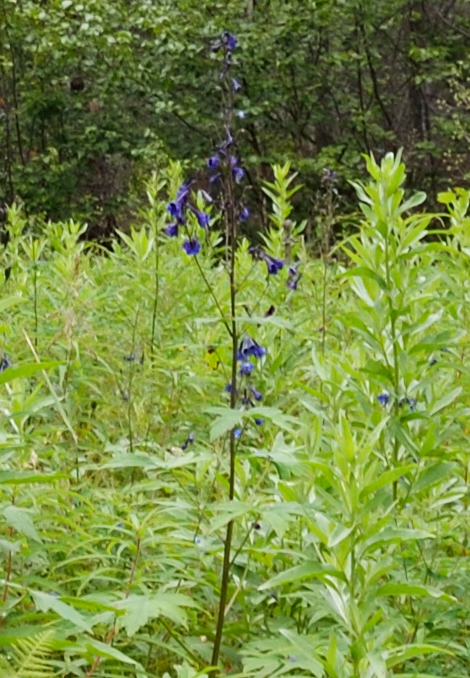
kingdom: Plantae
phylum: Tracheophyta
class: Magnoliopsida
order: Ranunculales
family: Ranunculaceae
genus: Delphinium
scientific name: Delphinium elatum
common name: Candle larkspur
